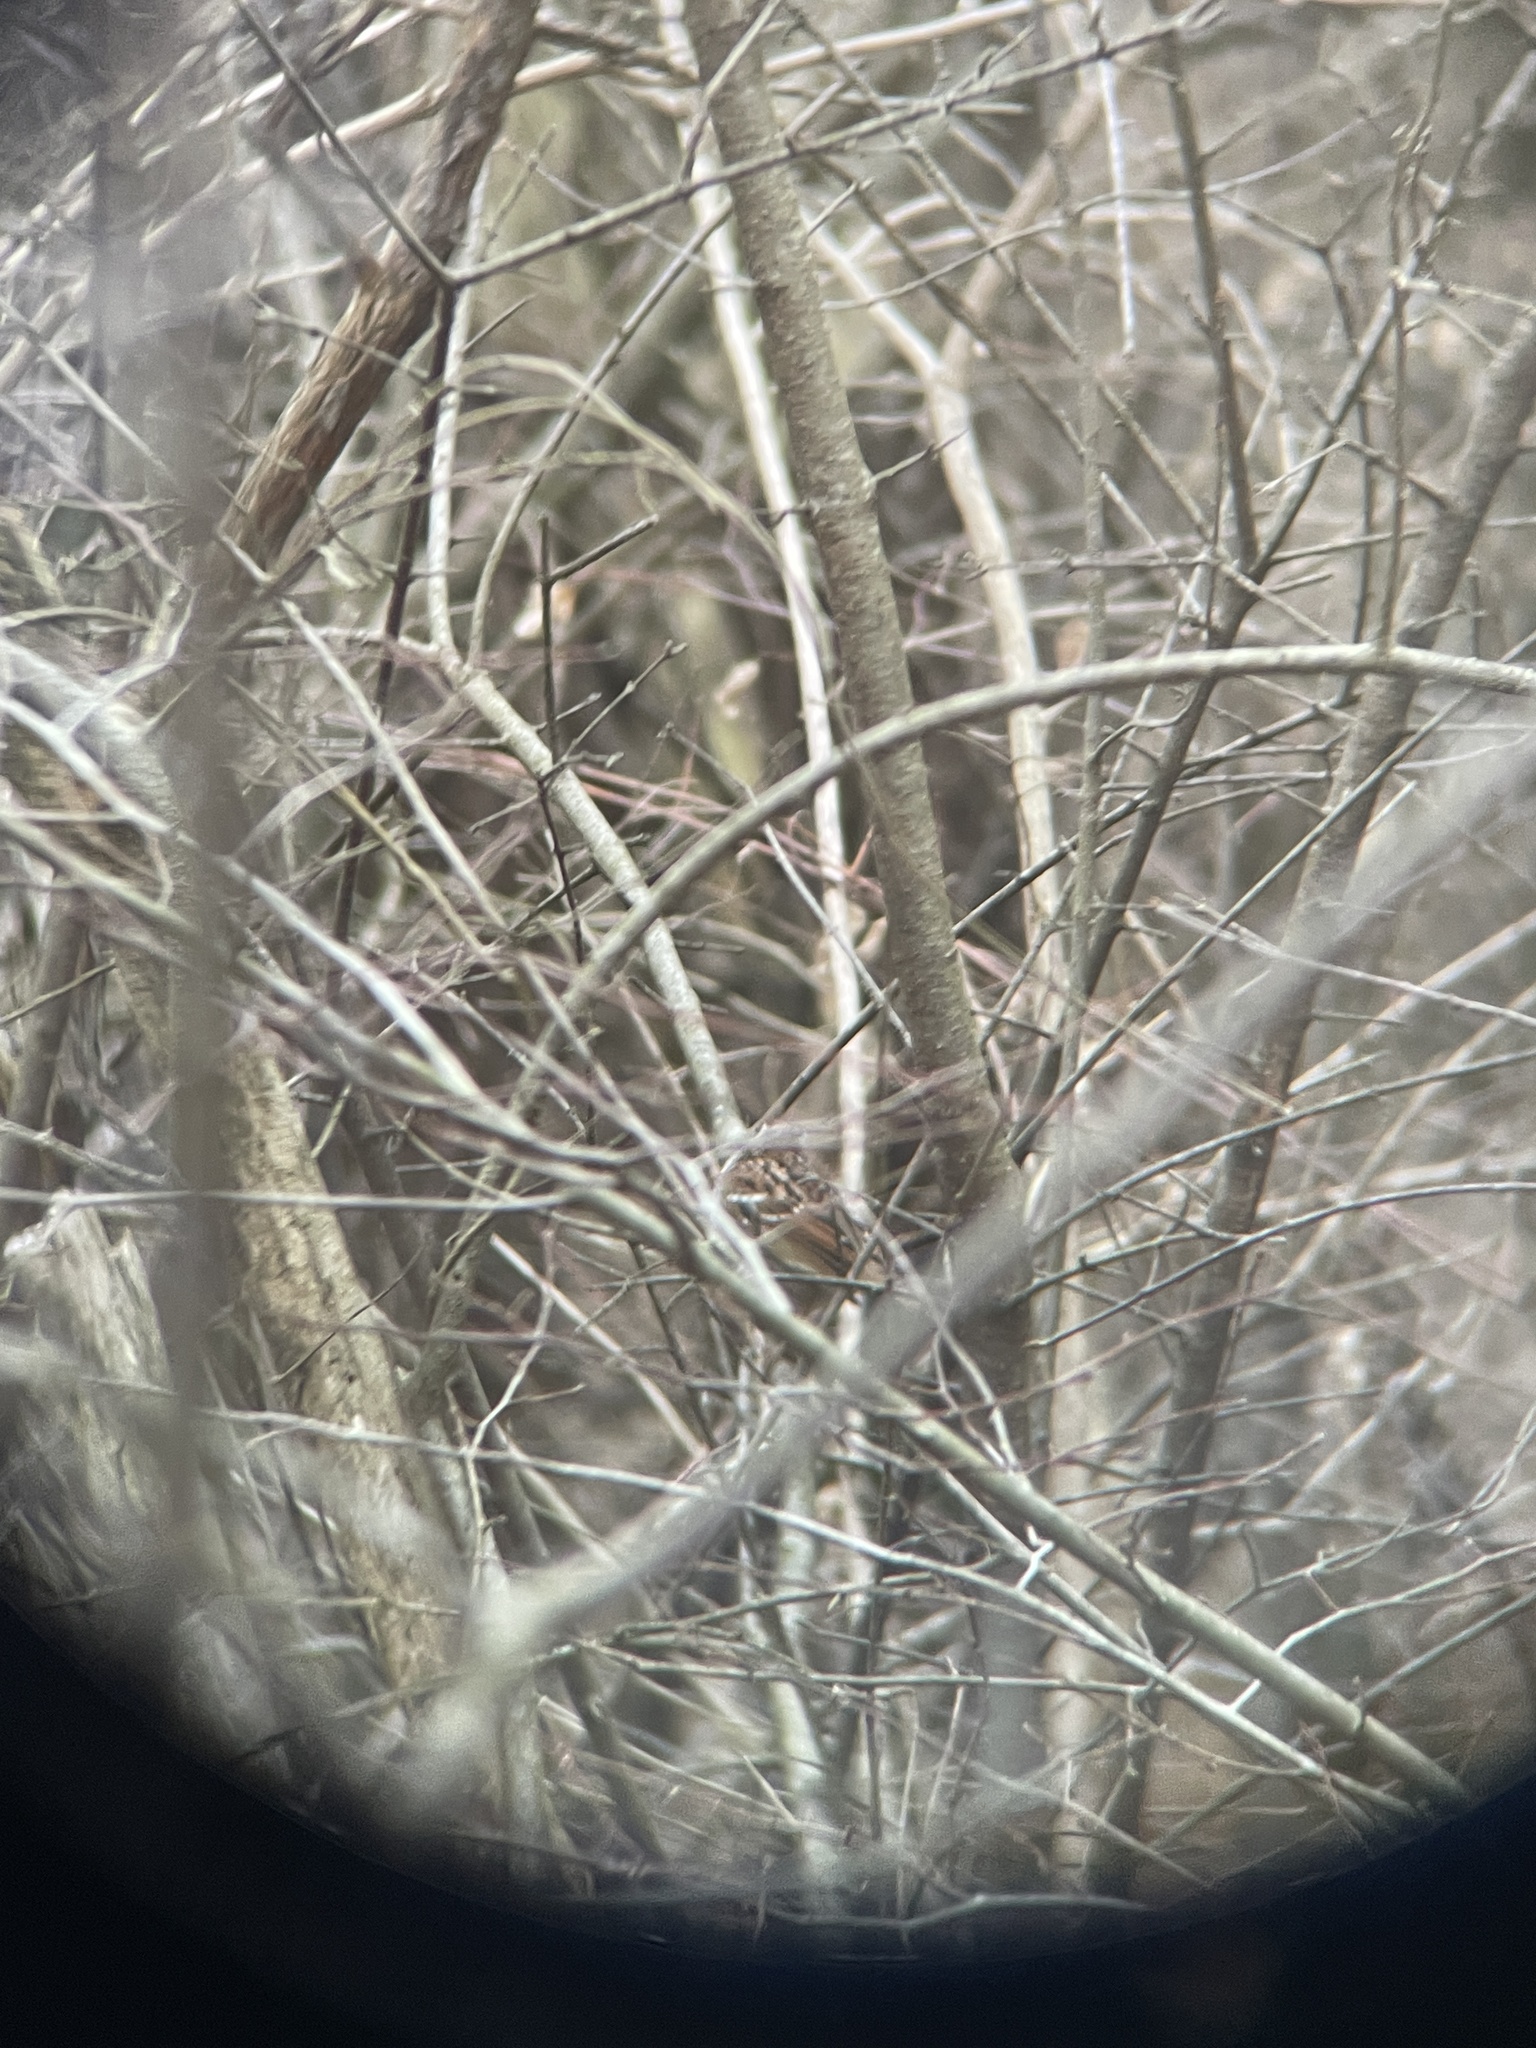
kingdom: Animalia
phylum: Chordata
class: Aves
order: Passeriformes
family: Passerellidae
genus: Zonotrichia
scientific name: Zonotrichia albicollis
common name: White-throated sparrow
